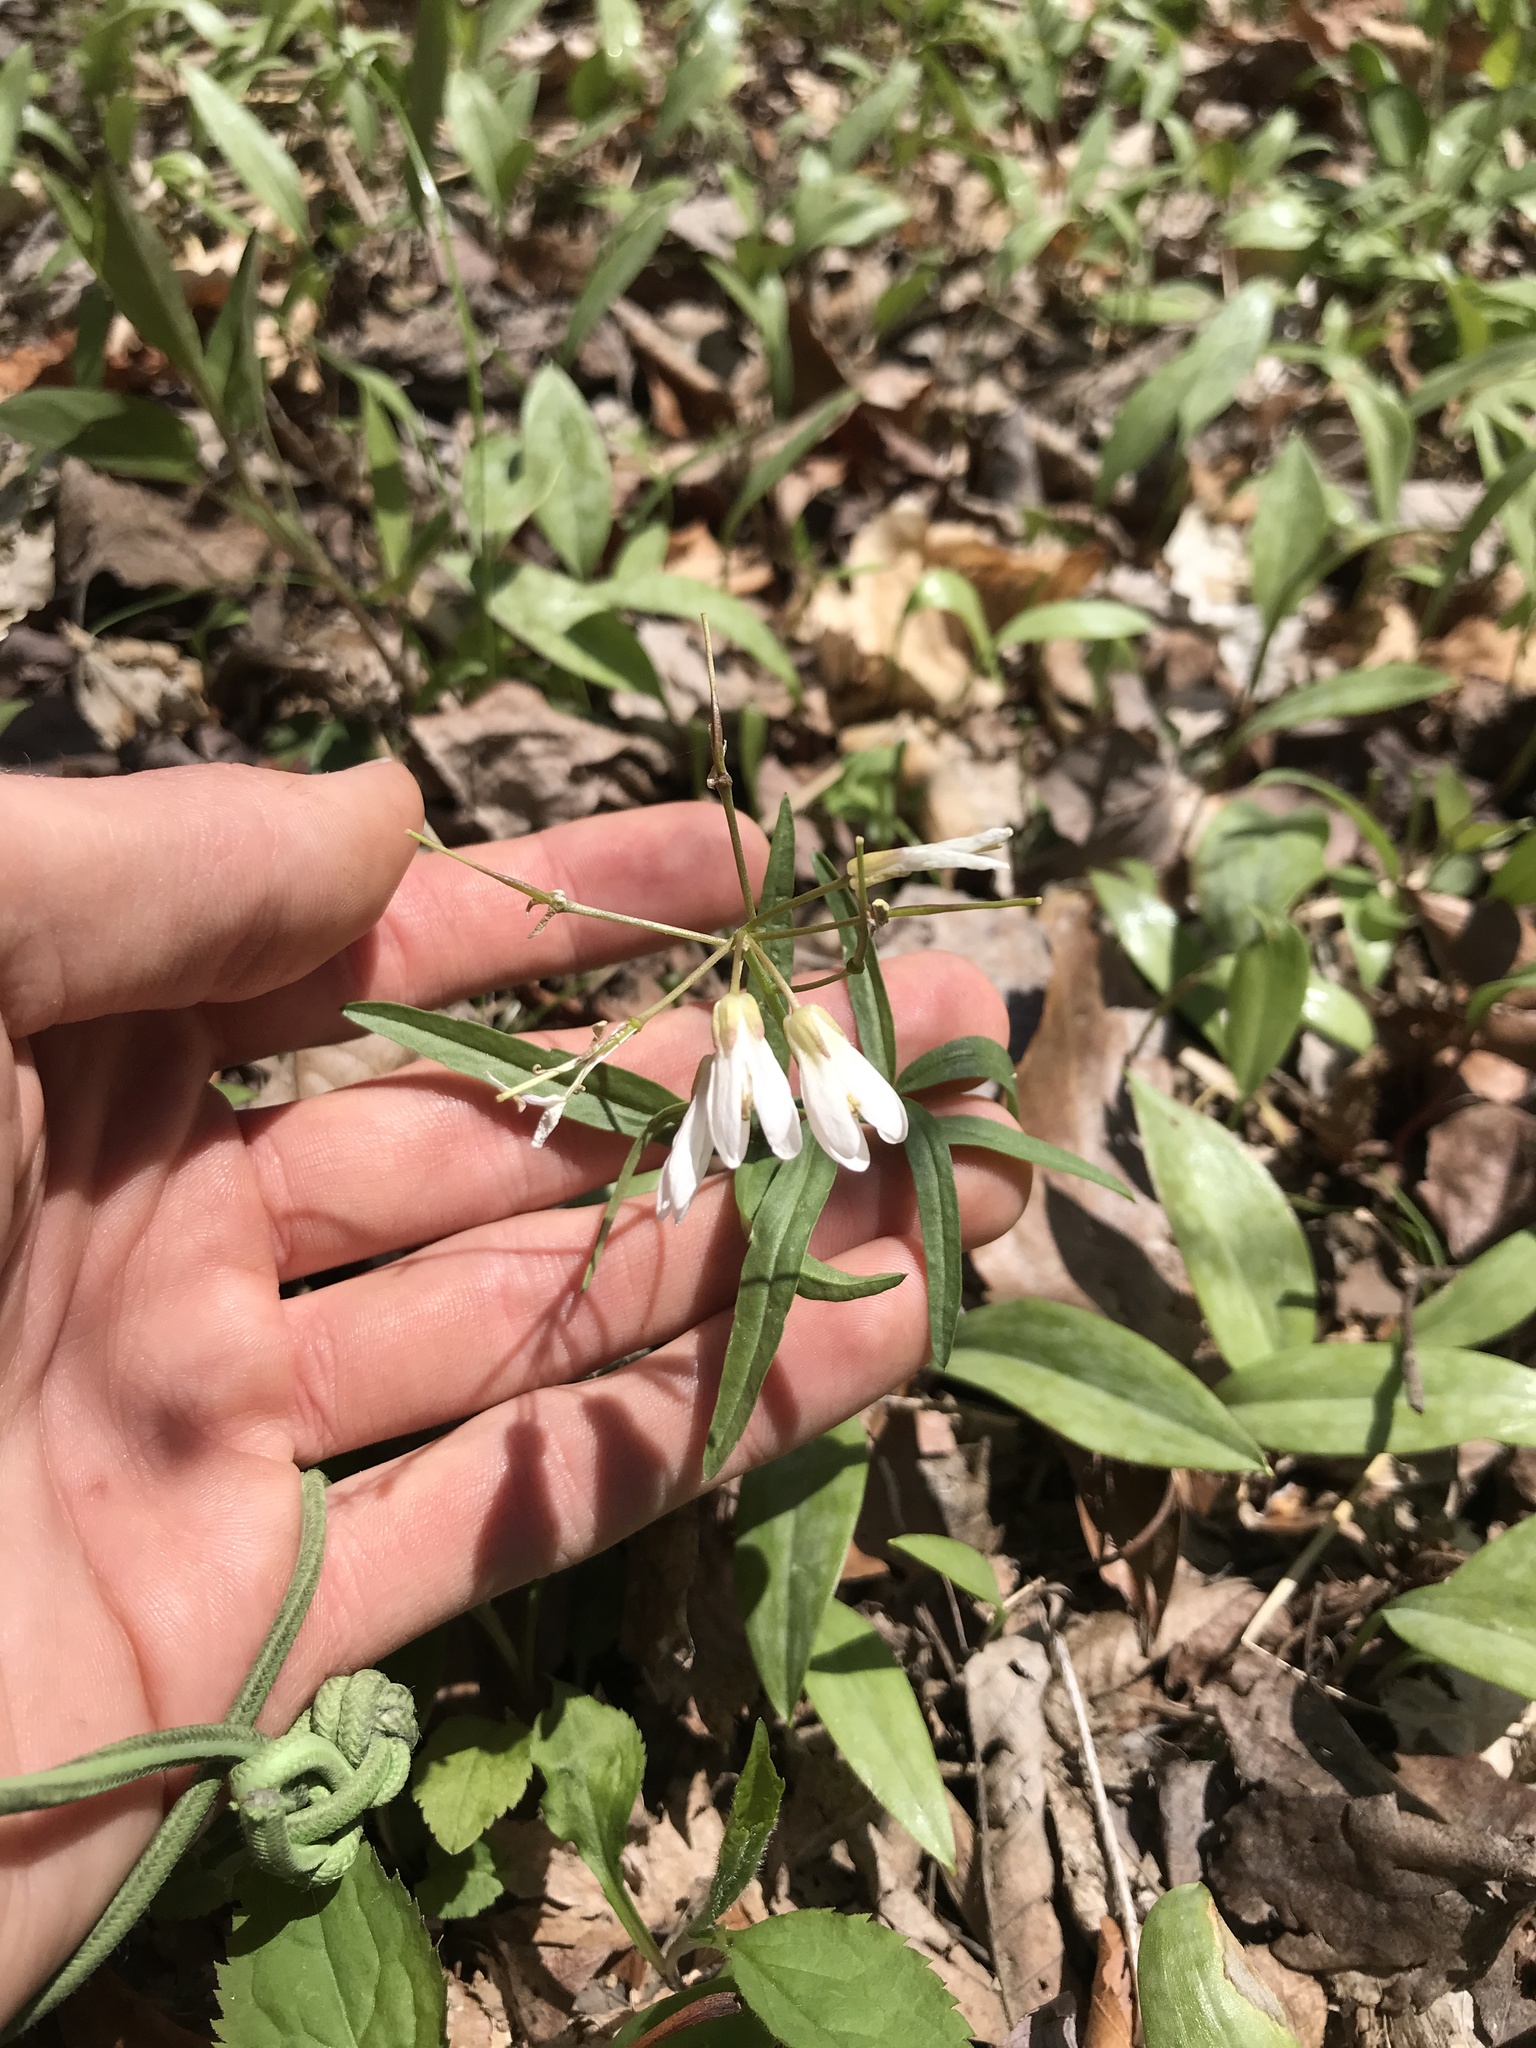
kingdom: Plantae
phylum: Tracheophyta
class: Magnoliopsida
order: Brassicales
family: Brassicaceae
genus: Cardamine
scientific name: Cardamine angustata
